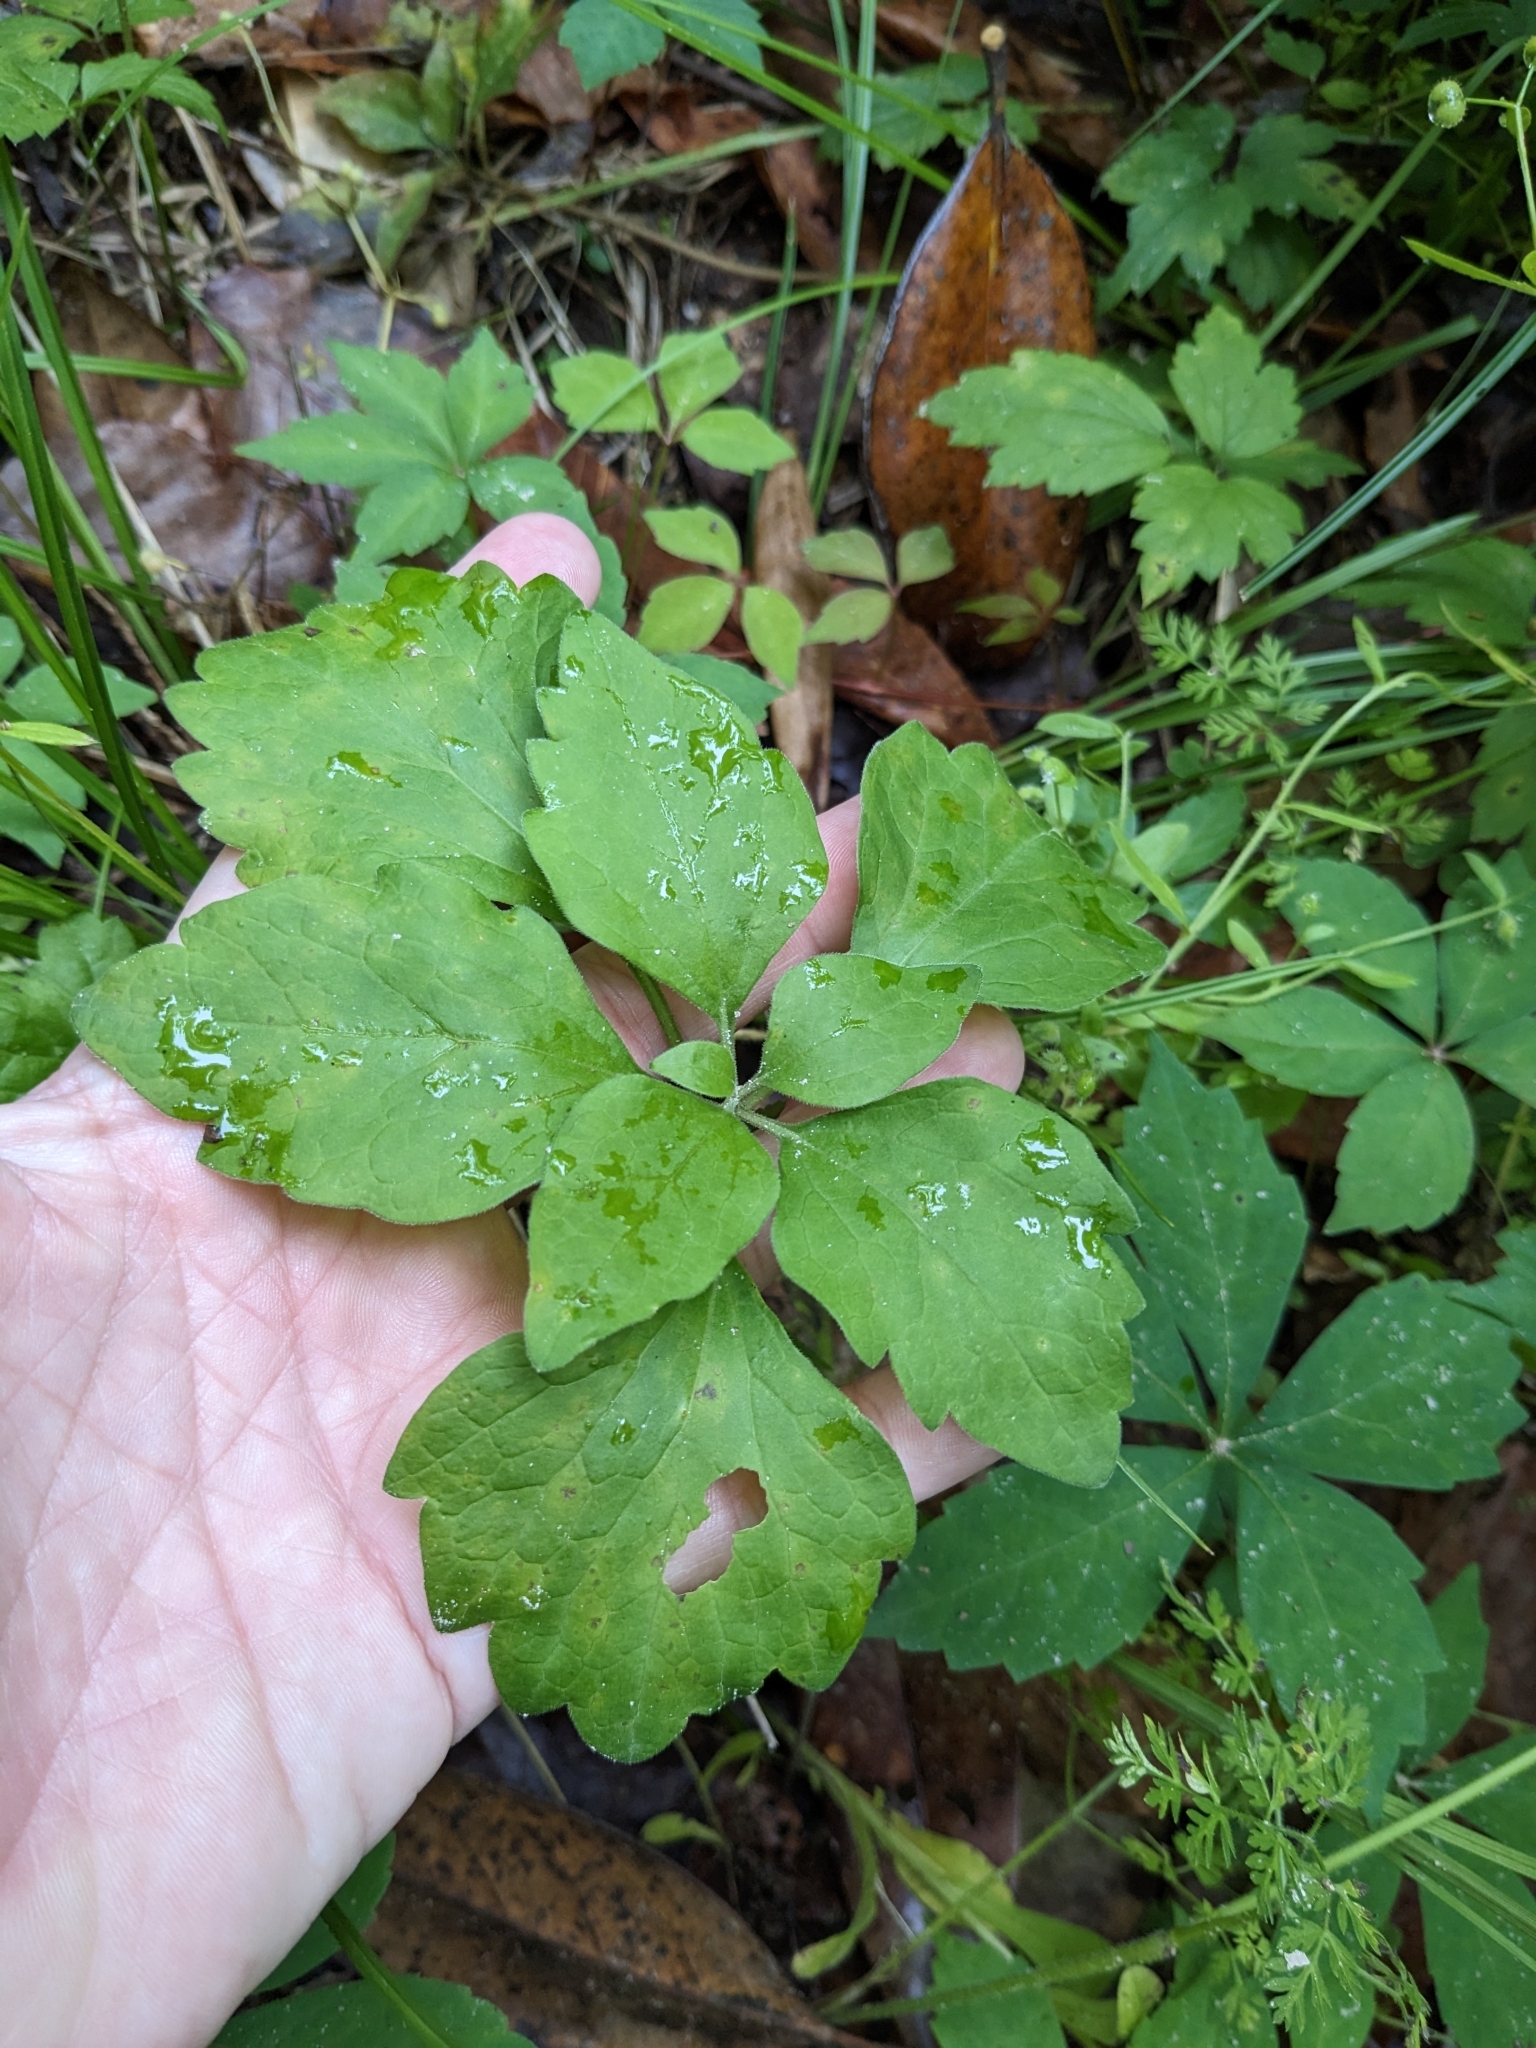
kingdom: Plantae
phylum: Tracheophyta
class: Magnoliopsida
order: Buxales
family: Buxaceae
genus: Pachysandra
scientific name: Pachysandra procumbens
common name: Mountain-spurge
